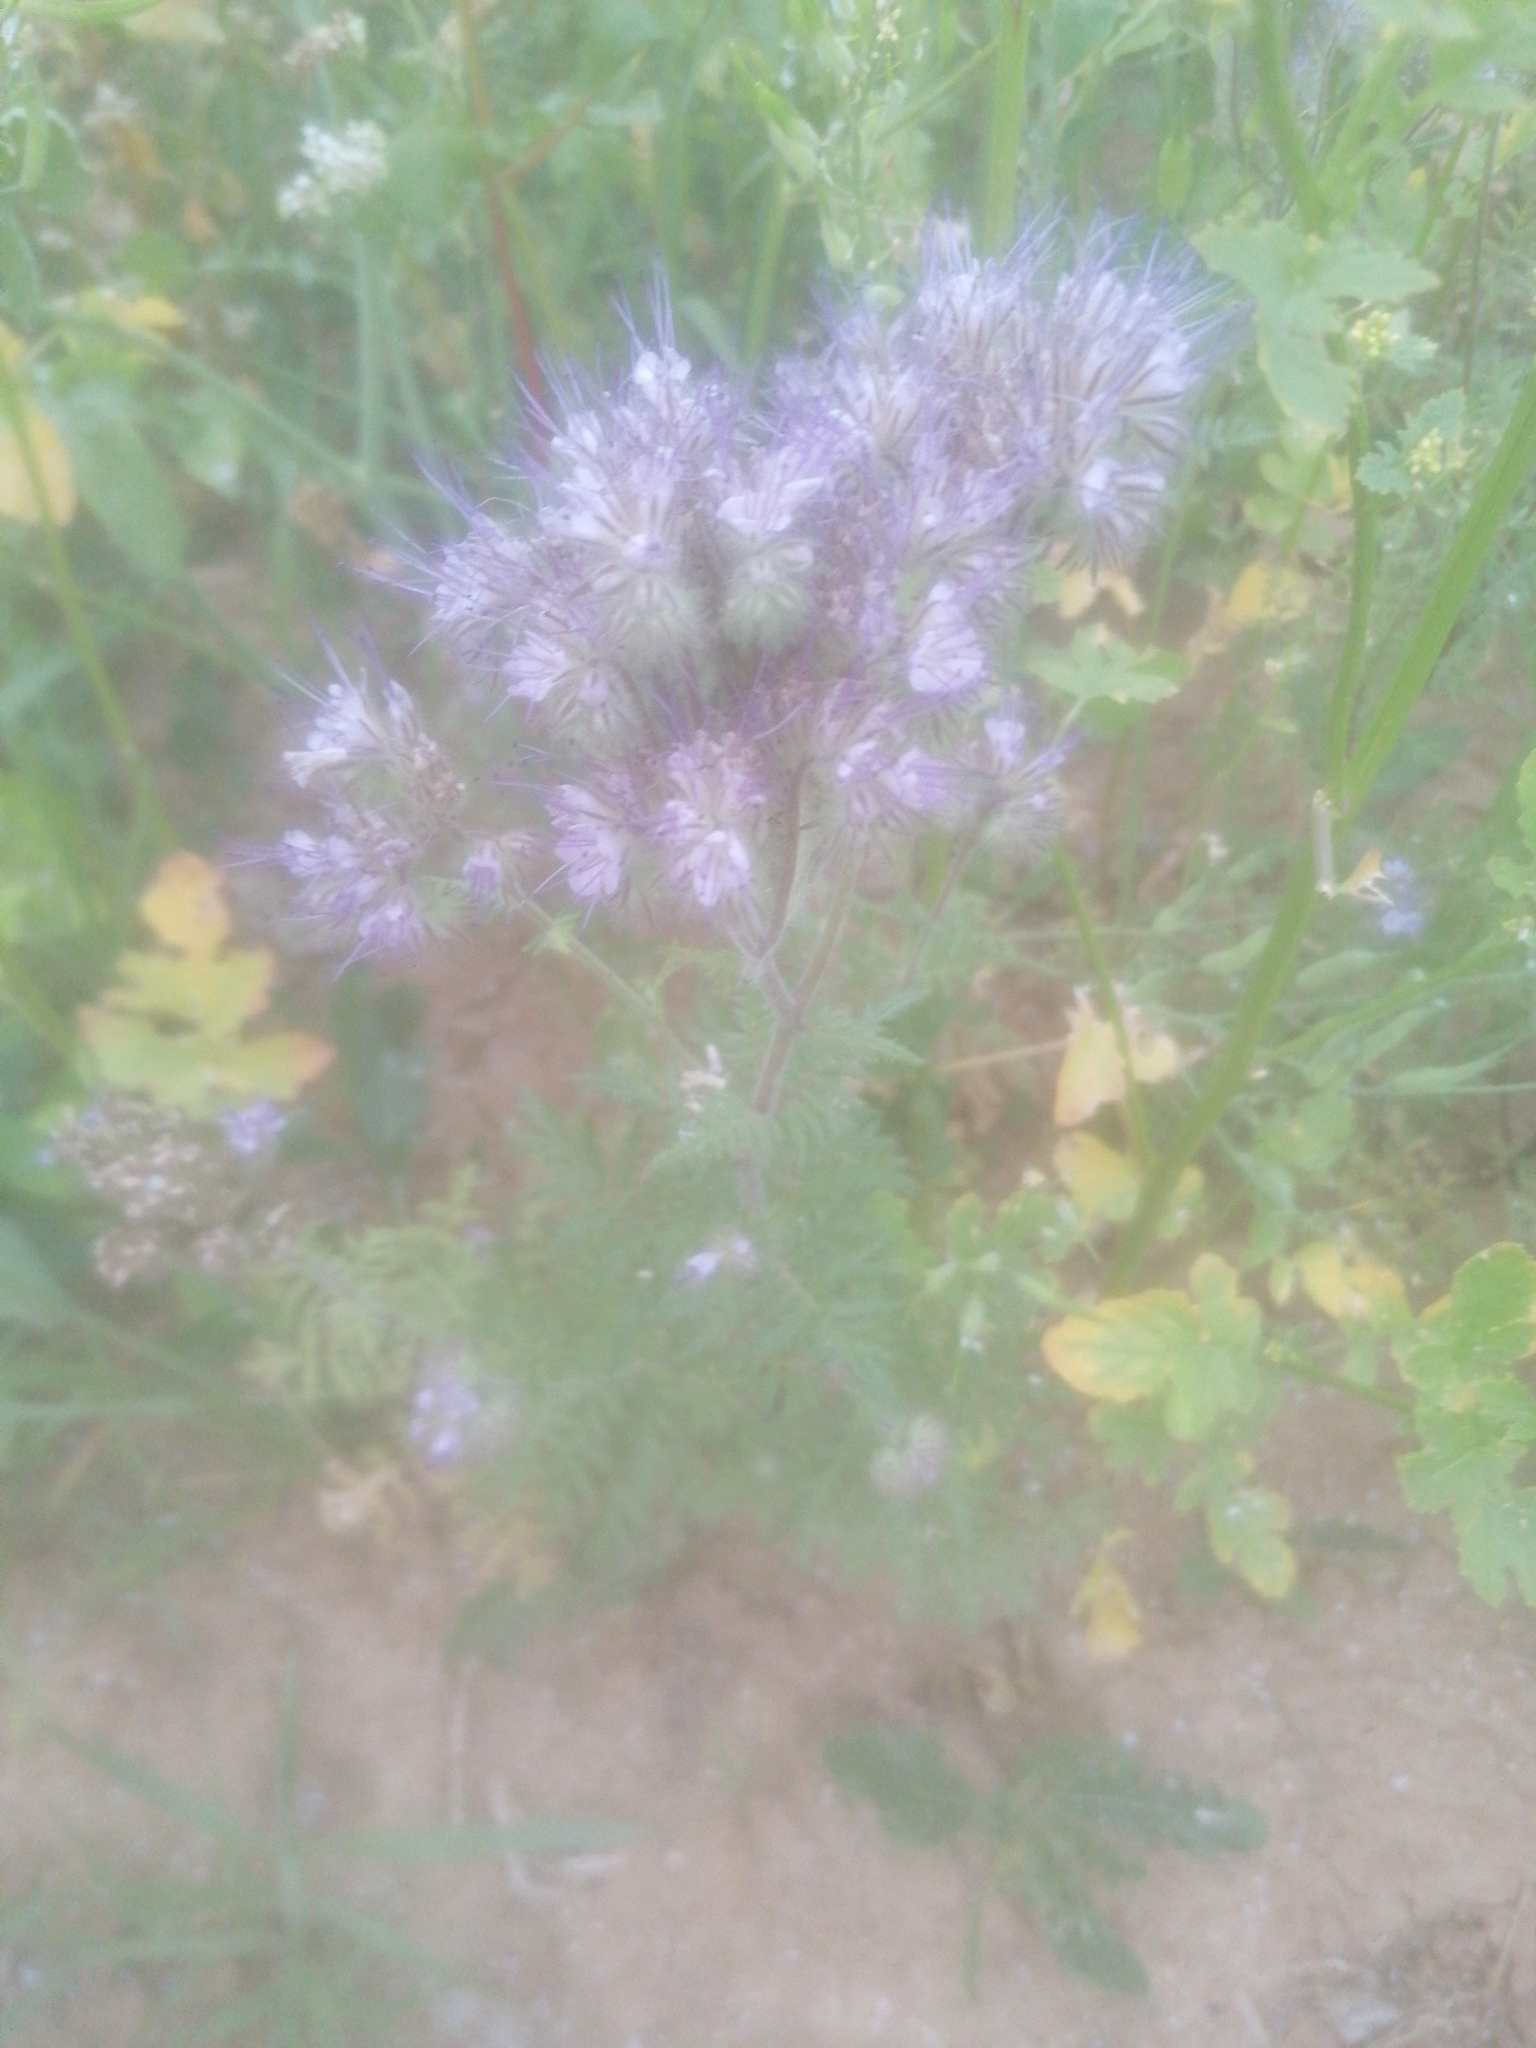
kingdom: Plantae
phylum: Tracheophyta
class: Magnoliopsida
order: Boraginales
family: Hydrophyllaceae
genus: Phacelia
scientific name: Phacelia tanacetifolia
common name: Phacelia
